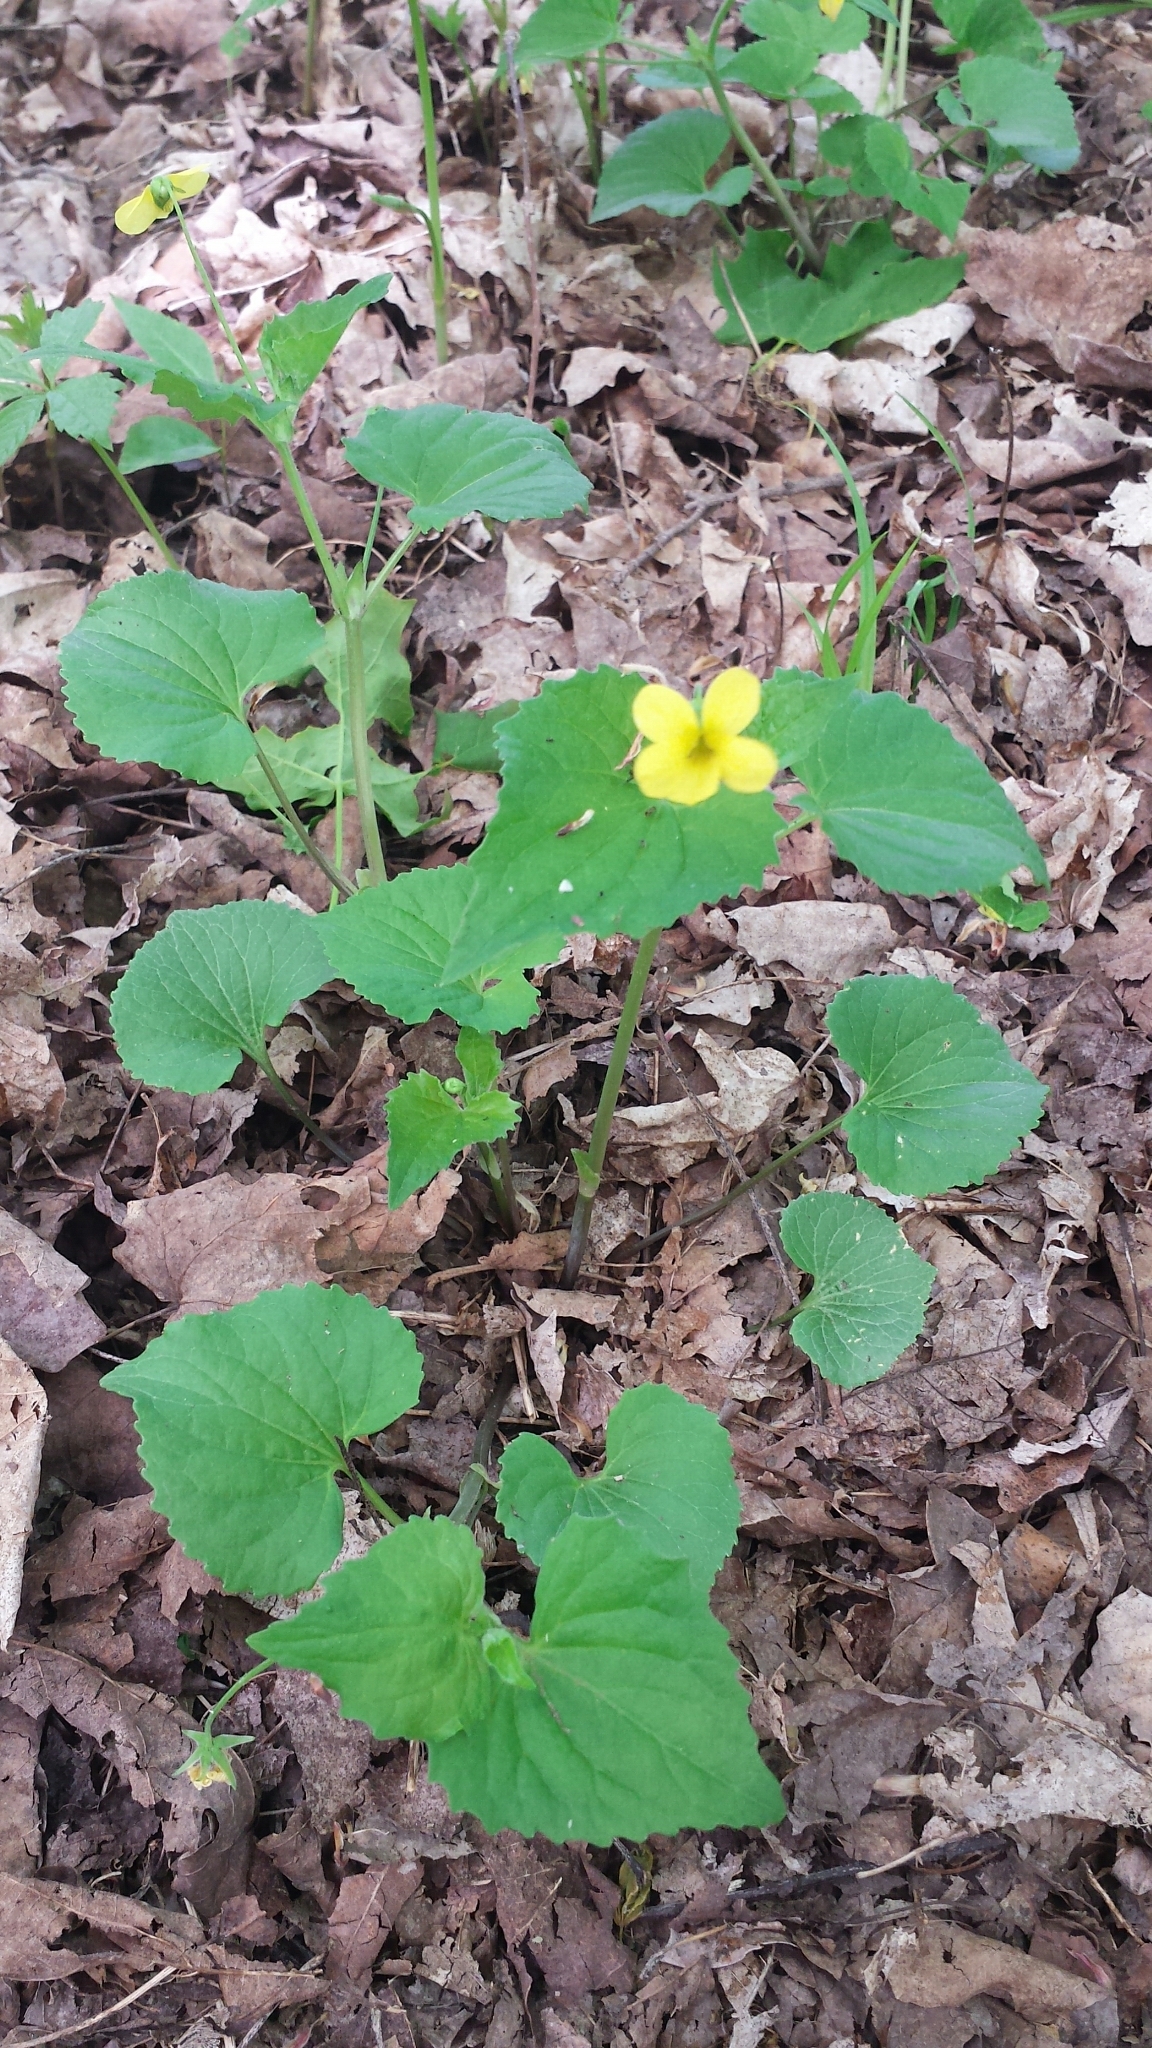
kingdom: Plantae
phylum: Tracheophyta
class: Magnoliopsida
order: Malpighiales
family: Violaceae
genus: Viola
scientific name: Viola eriocarpa
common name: Smooth yellow violet
